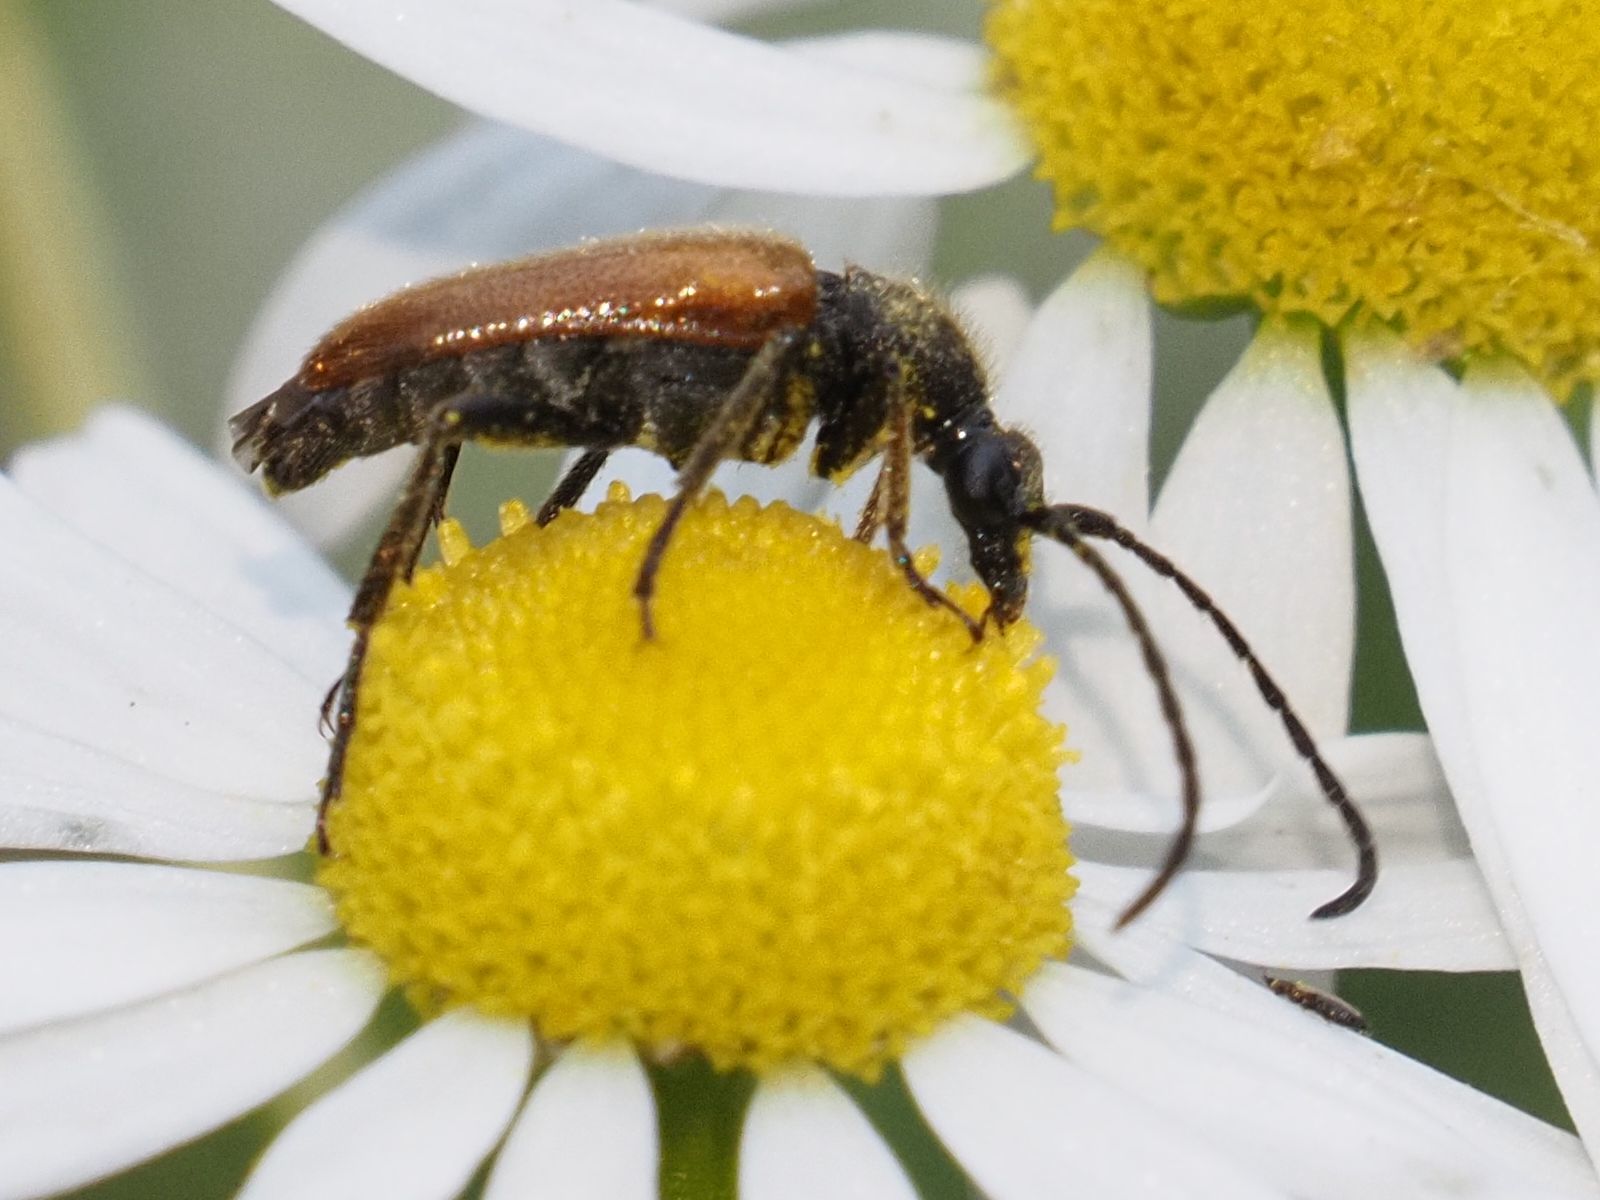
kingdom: Animalia
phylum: Arthropoda
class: Insecta
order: Coleoptera
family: Cerambycidae
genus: Pseudovadonia
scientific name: Pseudovadonia livida
